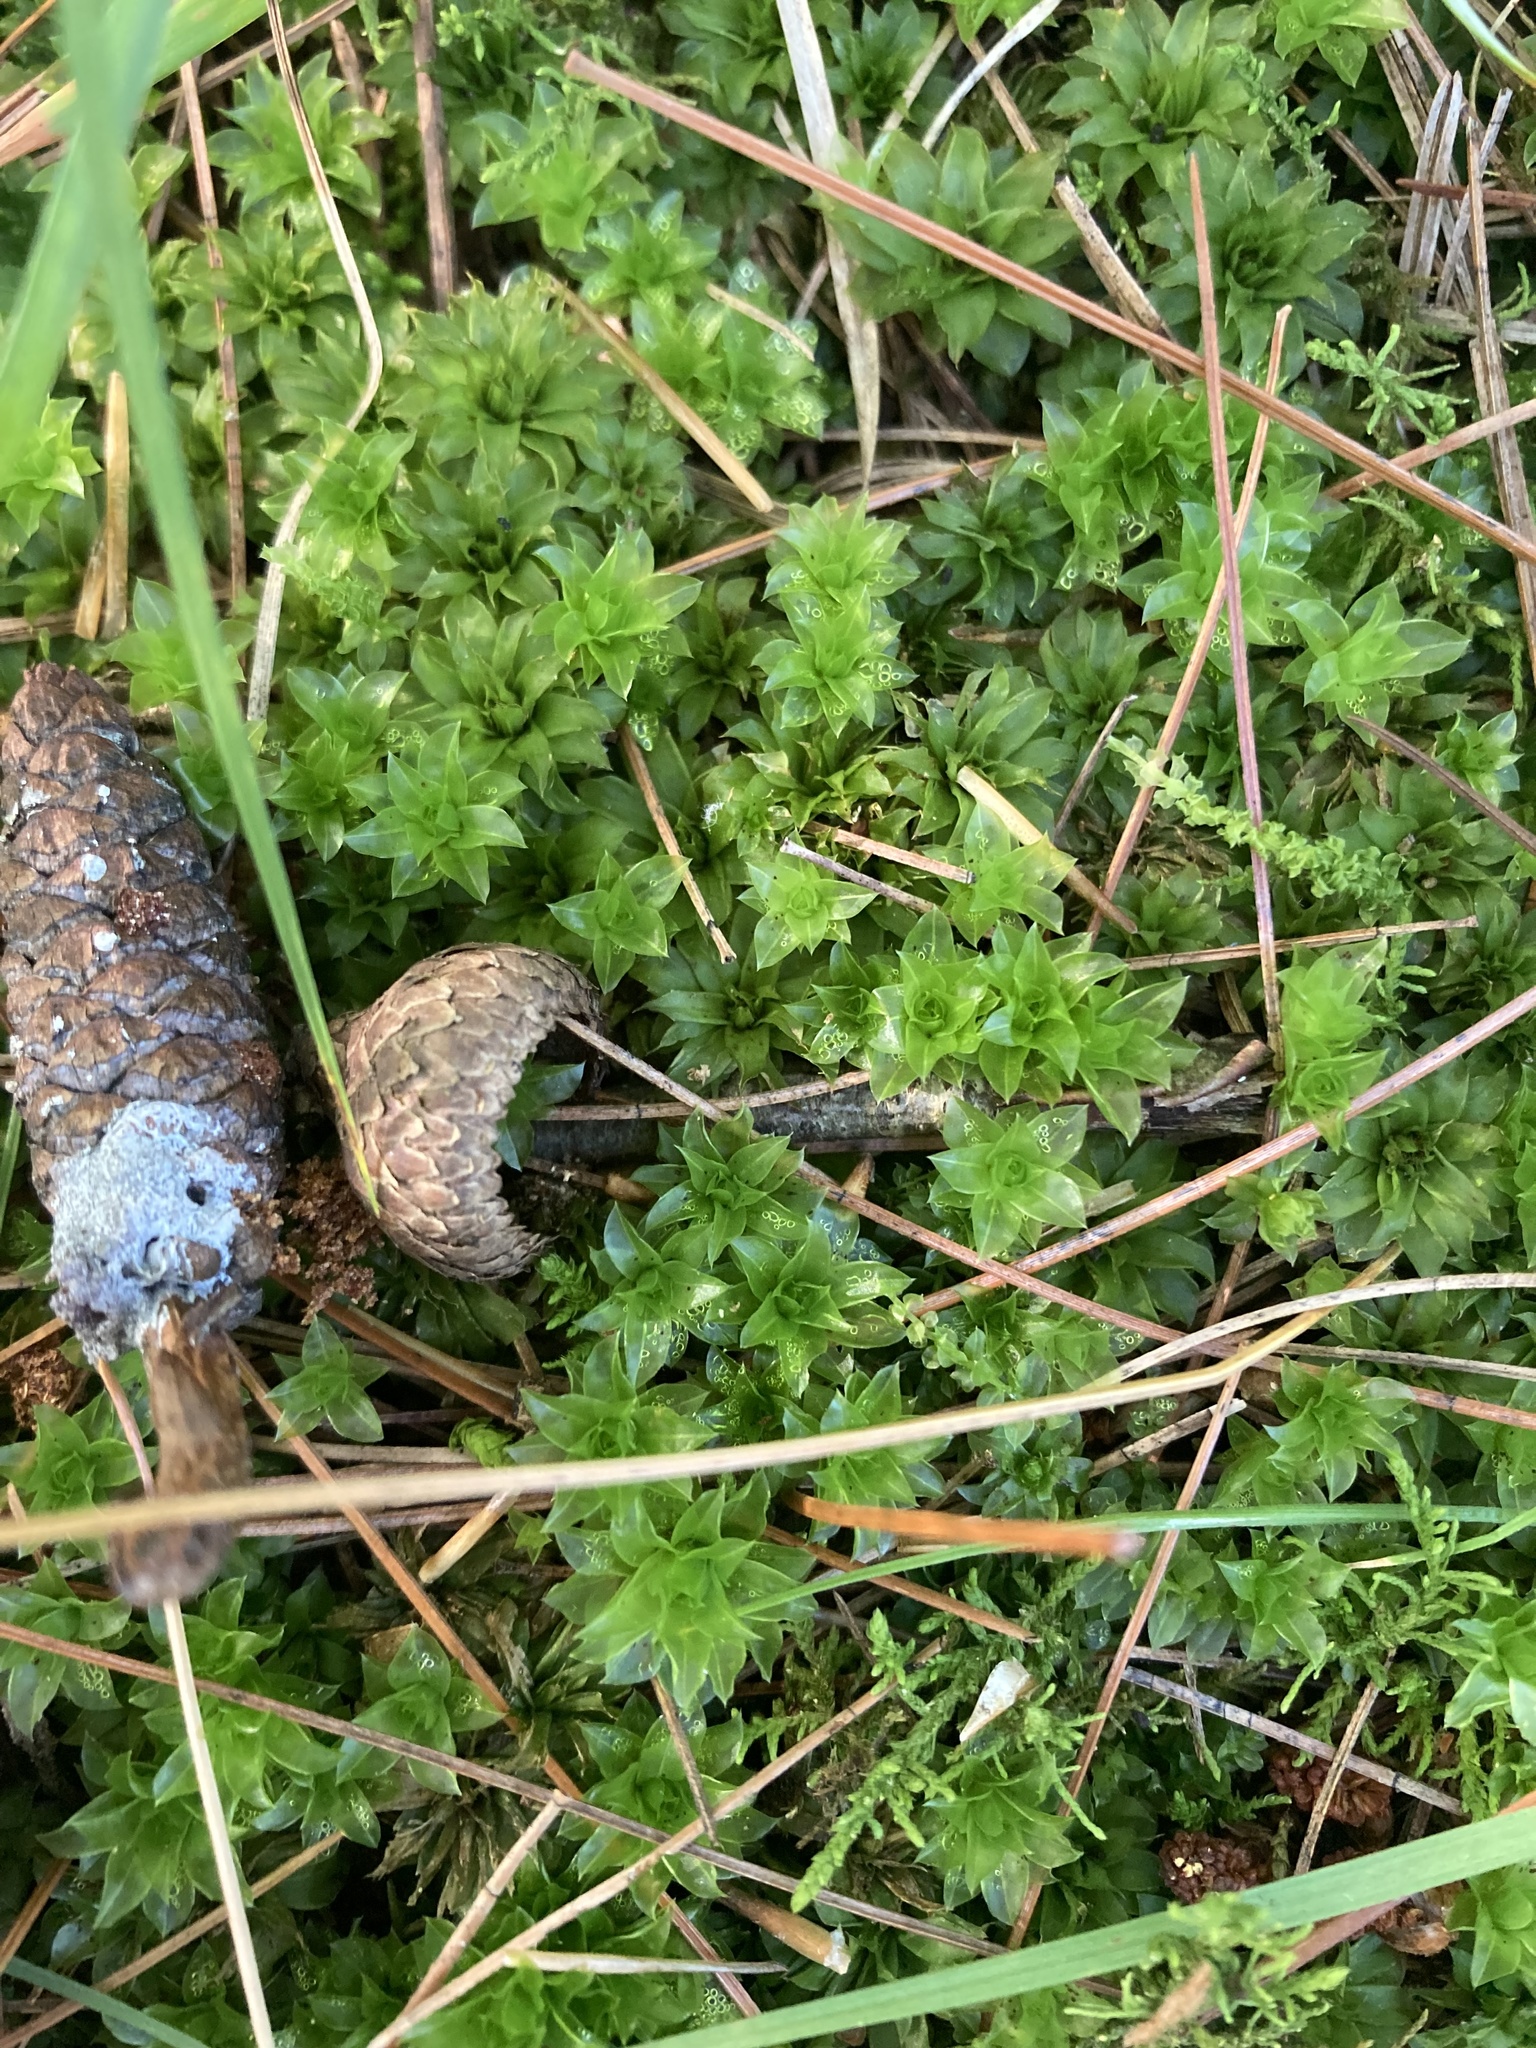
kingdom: Plantae
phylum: Bryophyta
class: Bryopsida
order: Bryales
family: Bryaceae
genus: Rhodobryum
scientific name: Rhodobryum ontariense
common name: Ontario rhodobryum moss
